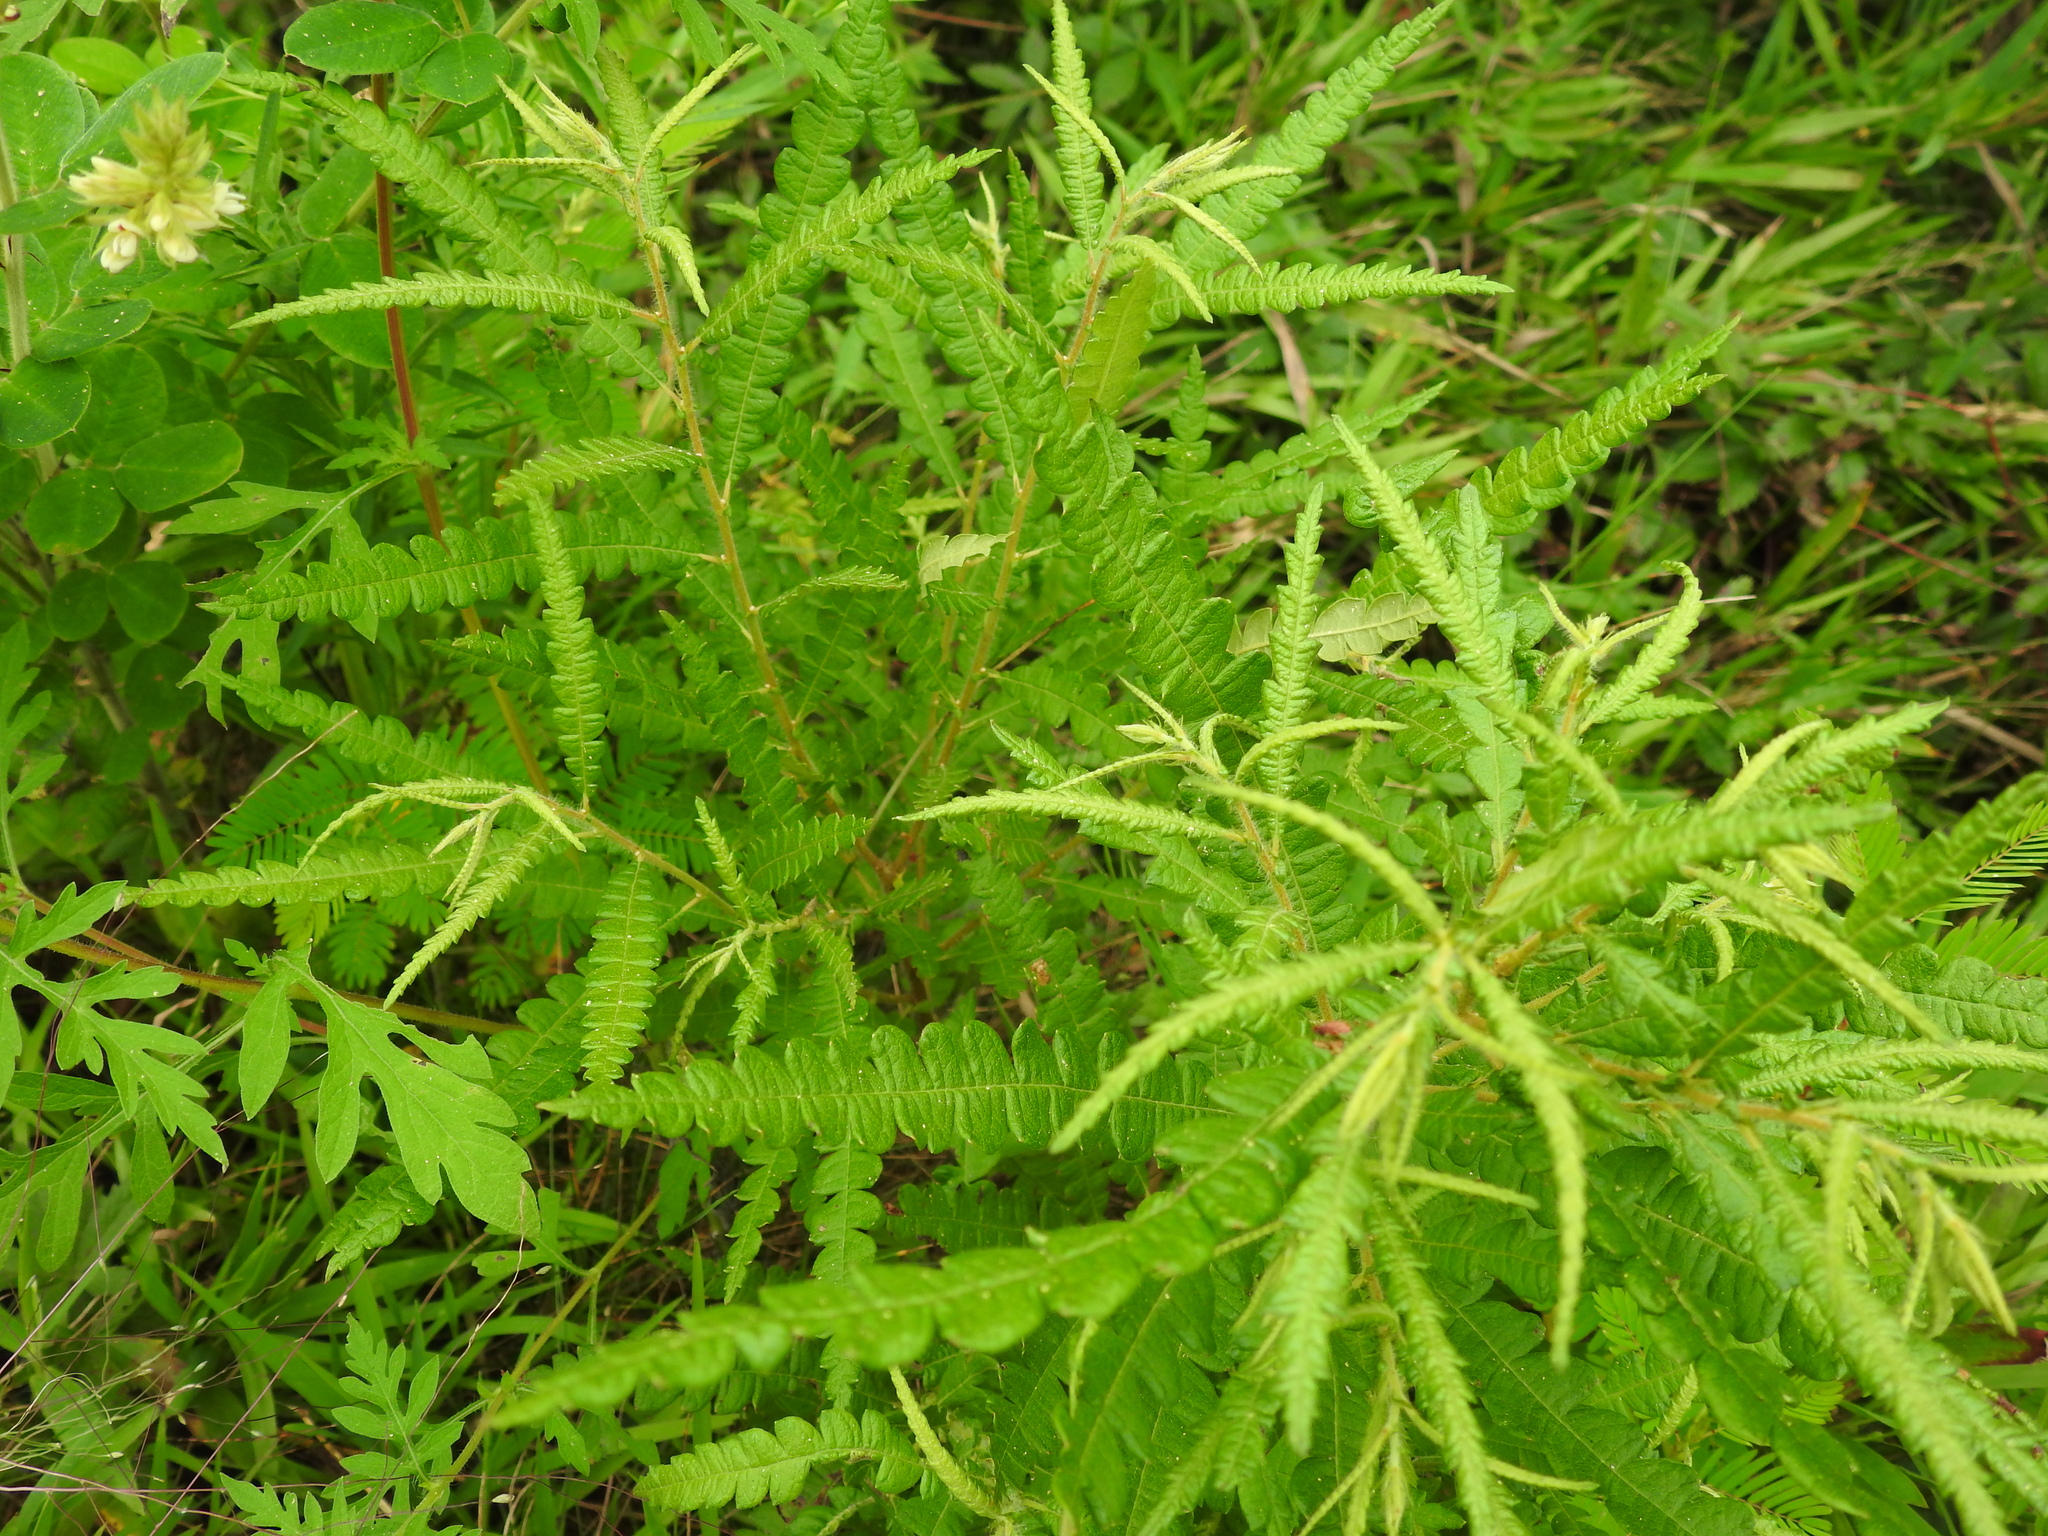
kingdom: Plantae
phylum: Tracheophyta
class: Magnoliopsida
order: Fagales
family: Myricaceae
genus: Comptonia
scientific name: Comptonia peregrina
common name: Sweet-fern
